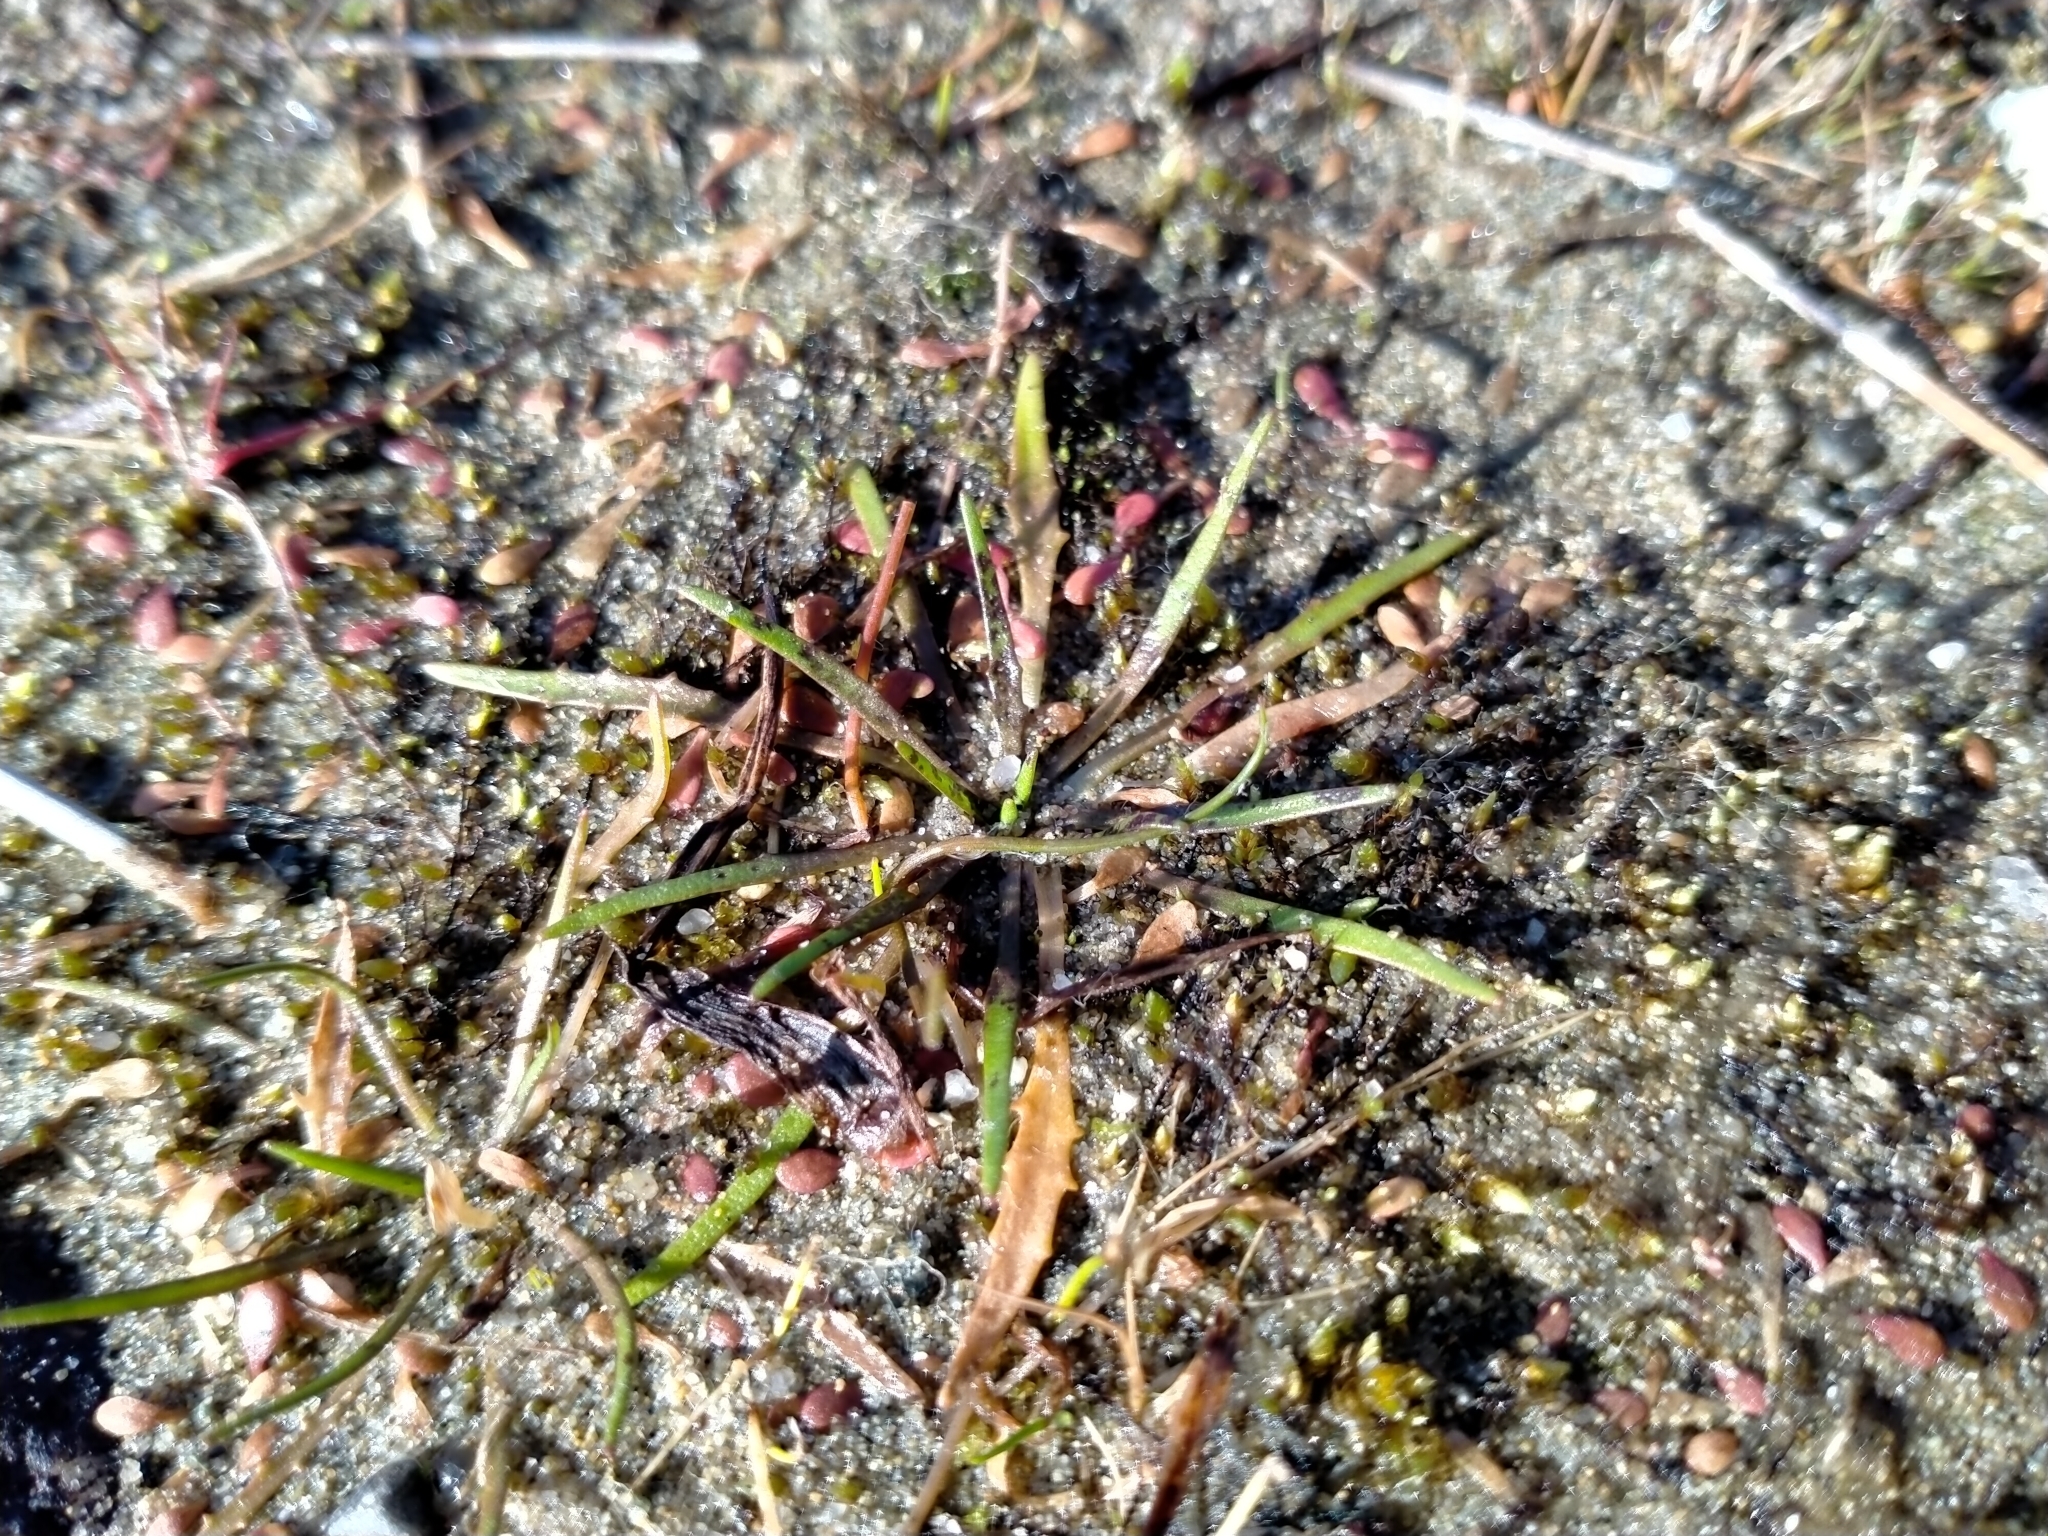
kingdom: Plantae
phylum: Tracheophyta
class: Magnoliopsida
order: Lamiales
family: Plantaginaceae
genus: Plantago
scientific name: Plantago triandra
